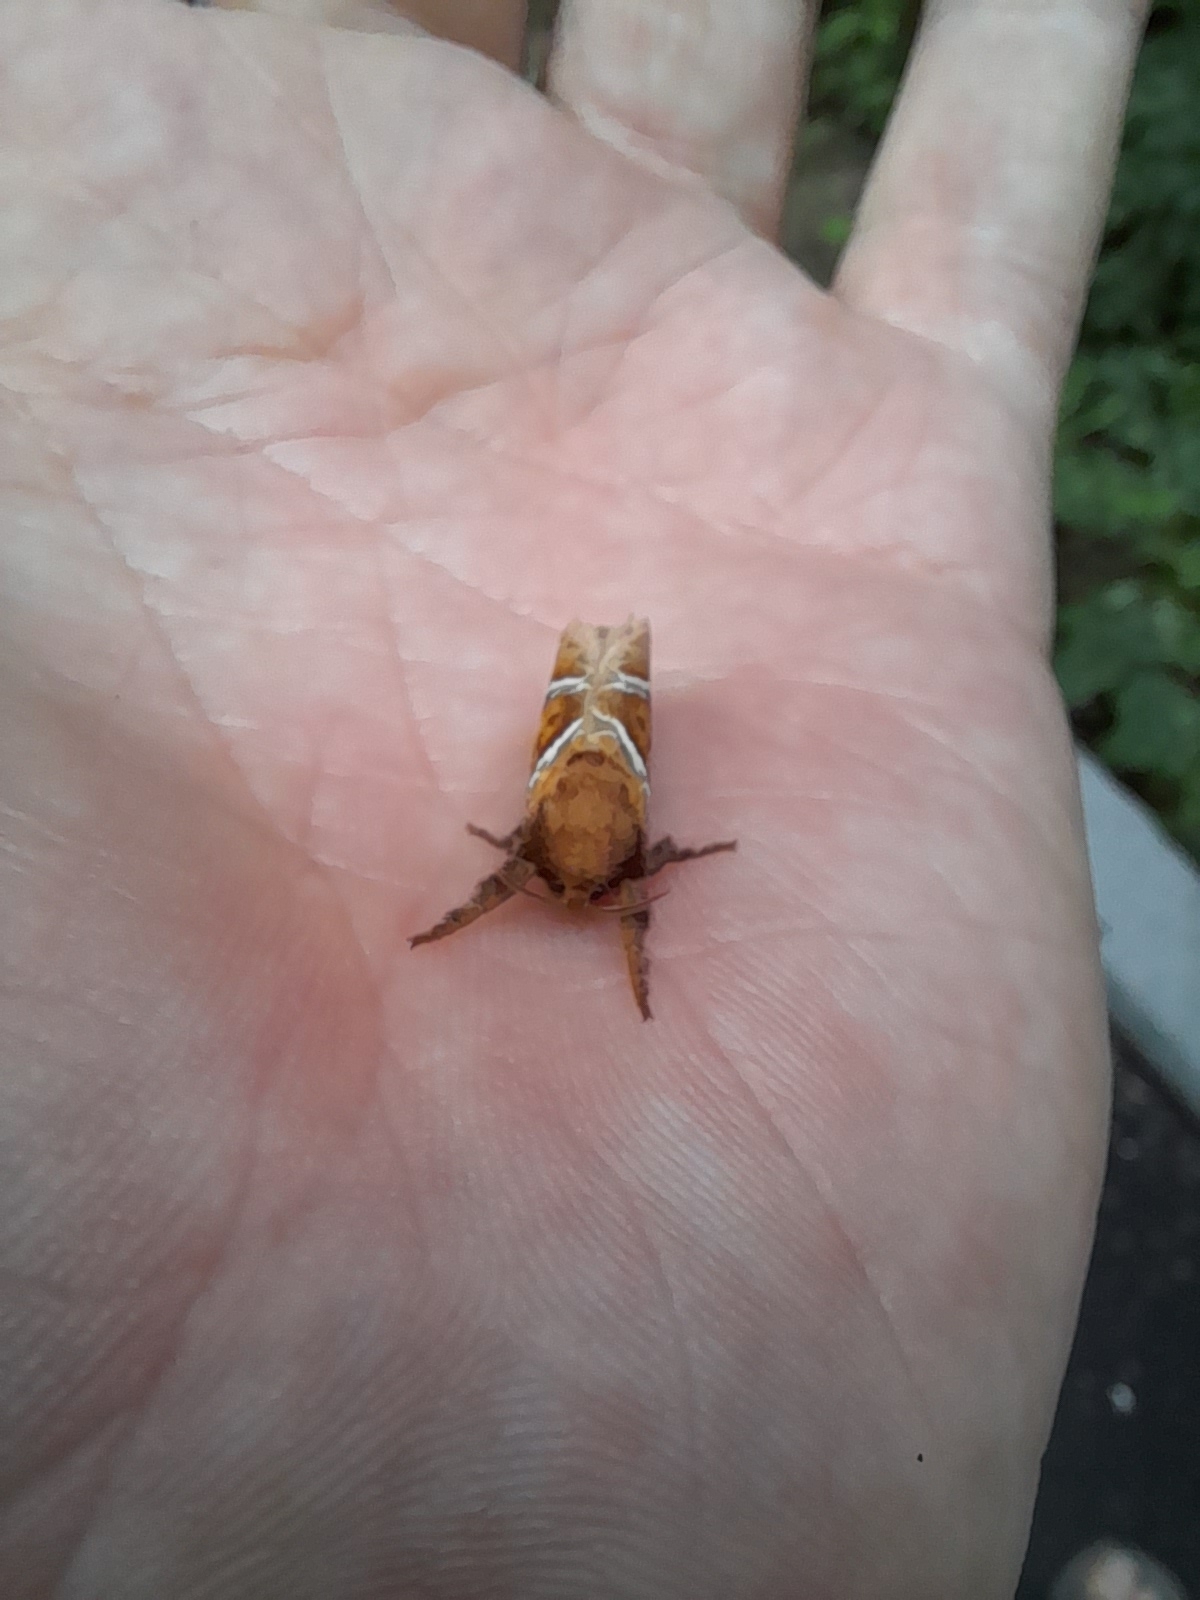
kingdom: Animalia
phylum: Arthropoda
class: Insecta
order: Lepidoptera
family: Hepialidae
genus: Triodia
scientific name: Triodia sylvina
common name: Orange swift
